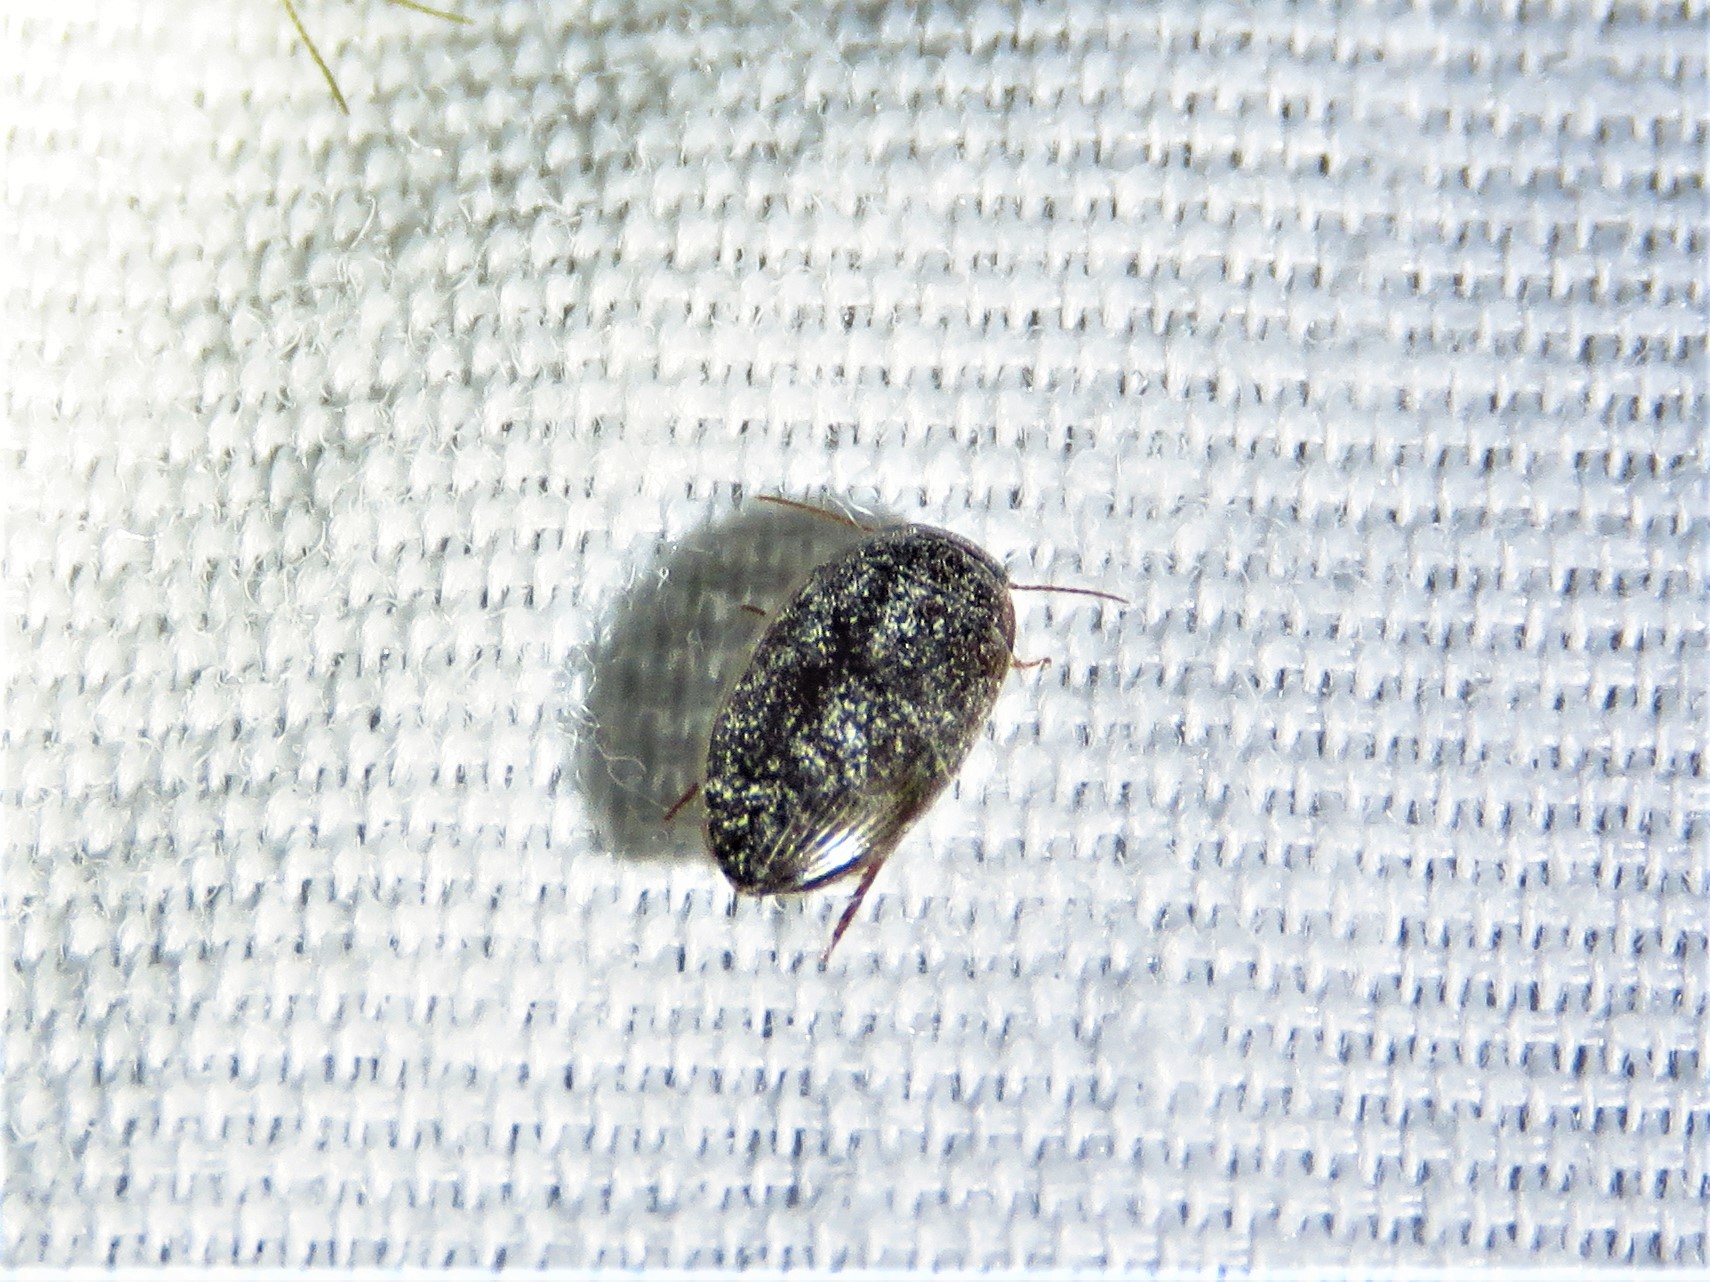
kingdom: Animalia
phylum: Arthropoda
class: Insecta
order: Coleoptera
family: Dytiscidae
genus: Copelatus
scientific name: Copelatus glyphicus
